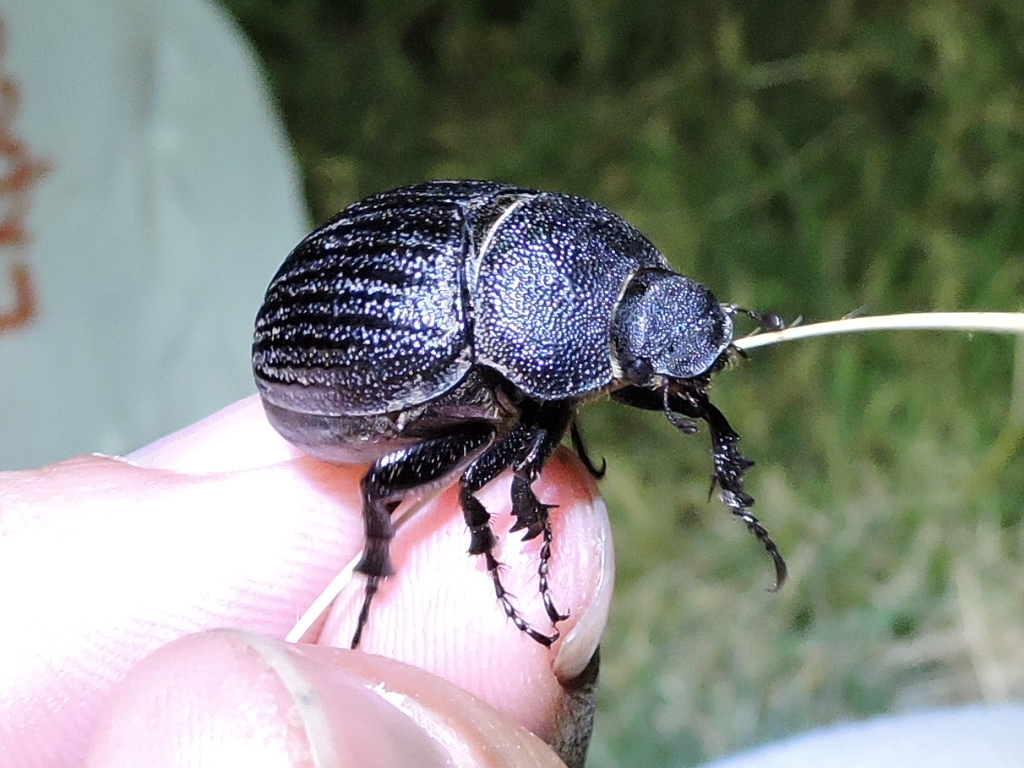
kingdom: Animalia
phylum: Arthropoda
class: Insecta
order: Coleoptera
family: Scarabaeidae
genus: Phyllophaga
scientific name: Phyllophaga cribrosa
